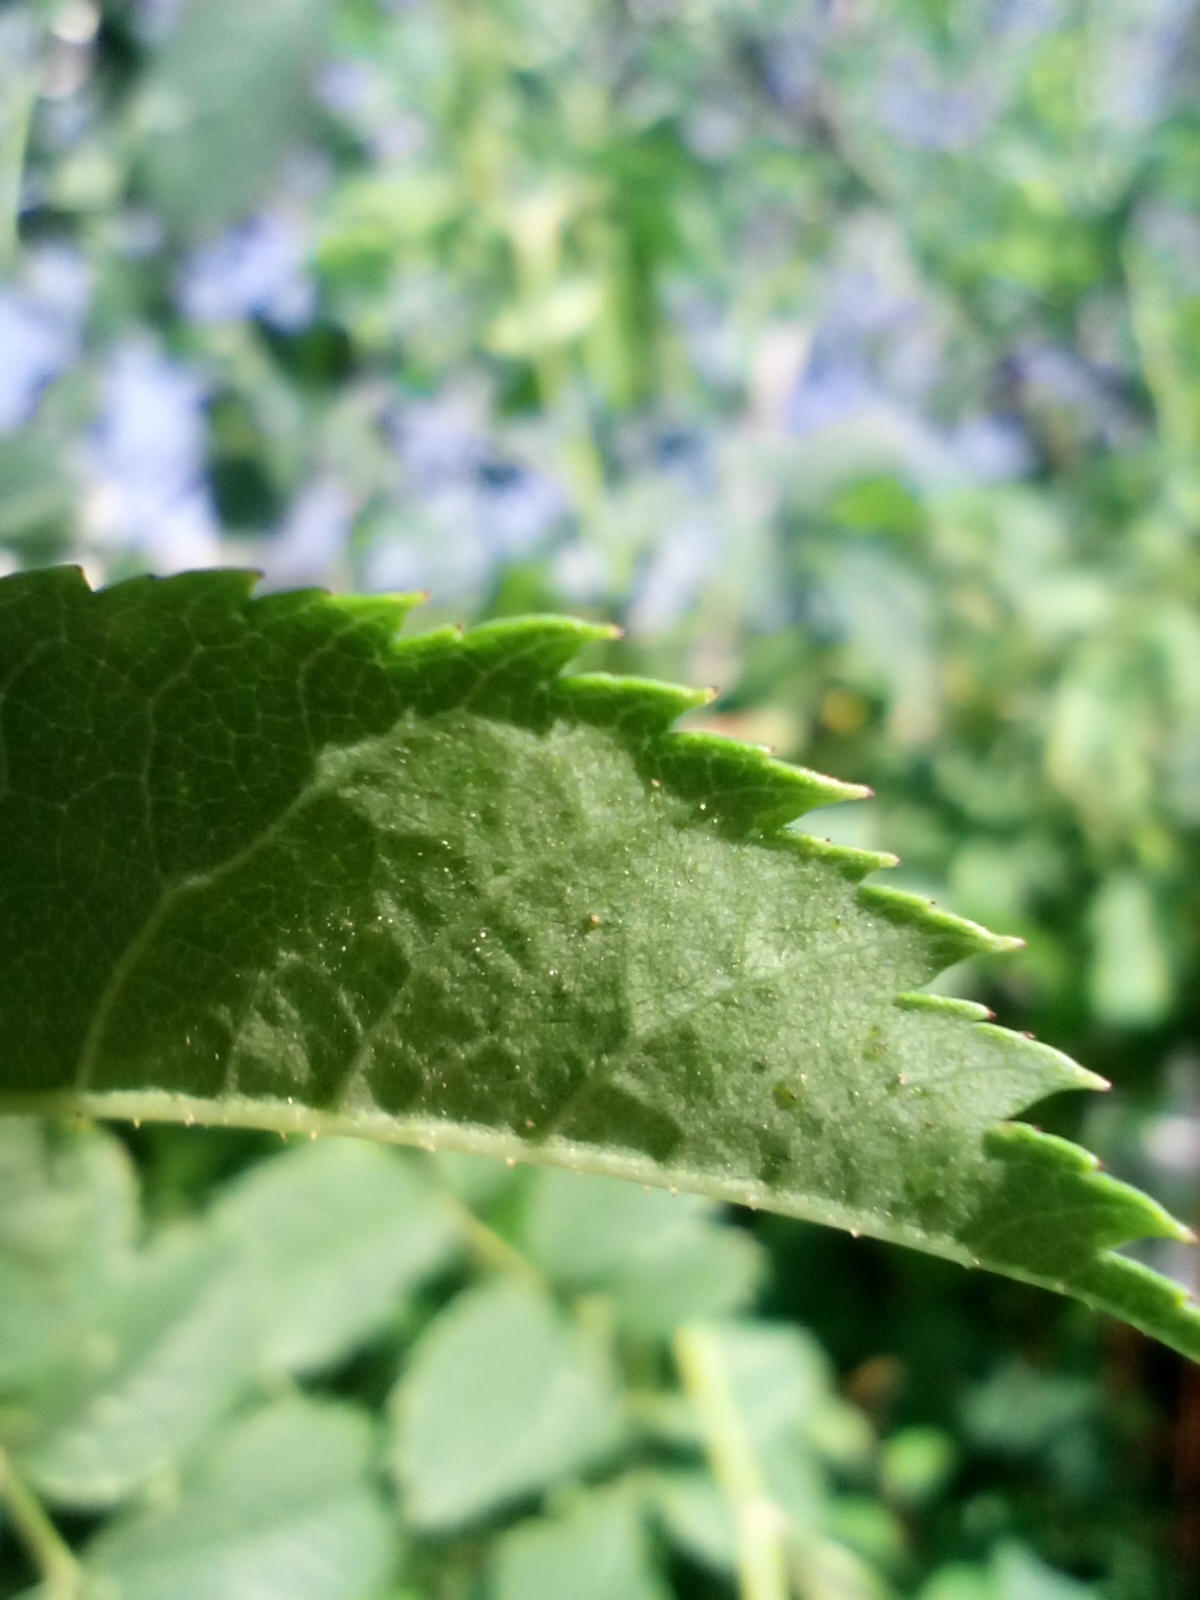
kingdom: Plantae
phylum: Tracheophyta
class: Magnoliopsida
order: Rosales
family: Rosaceae
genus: Rosa
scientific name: Rosa canina
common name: Dog rose
